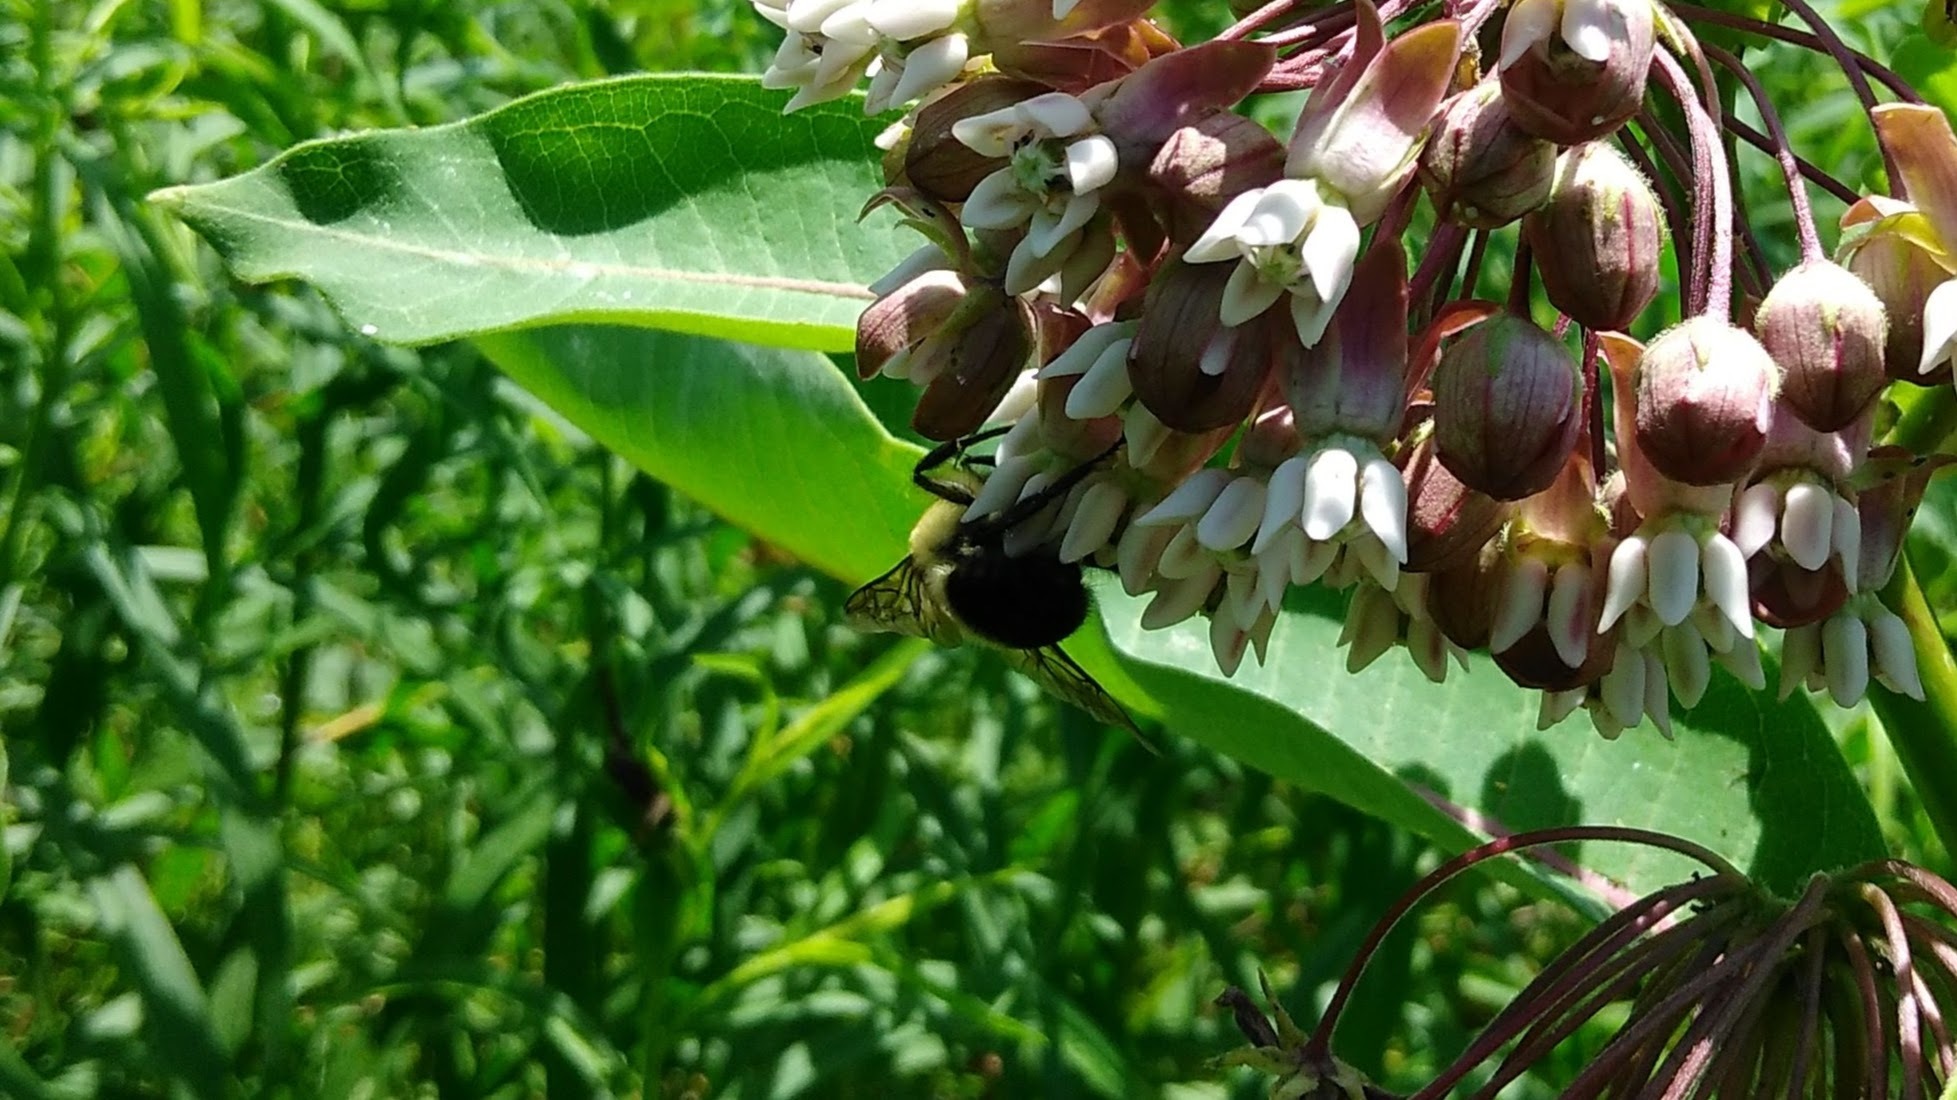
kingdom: Animalia
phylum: Arthropoda
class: Insecta
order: Hymenoptera
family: Apidae
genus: Bombus
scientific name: Bombus griseocollis
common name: Brown-belted bumble bee
